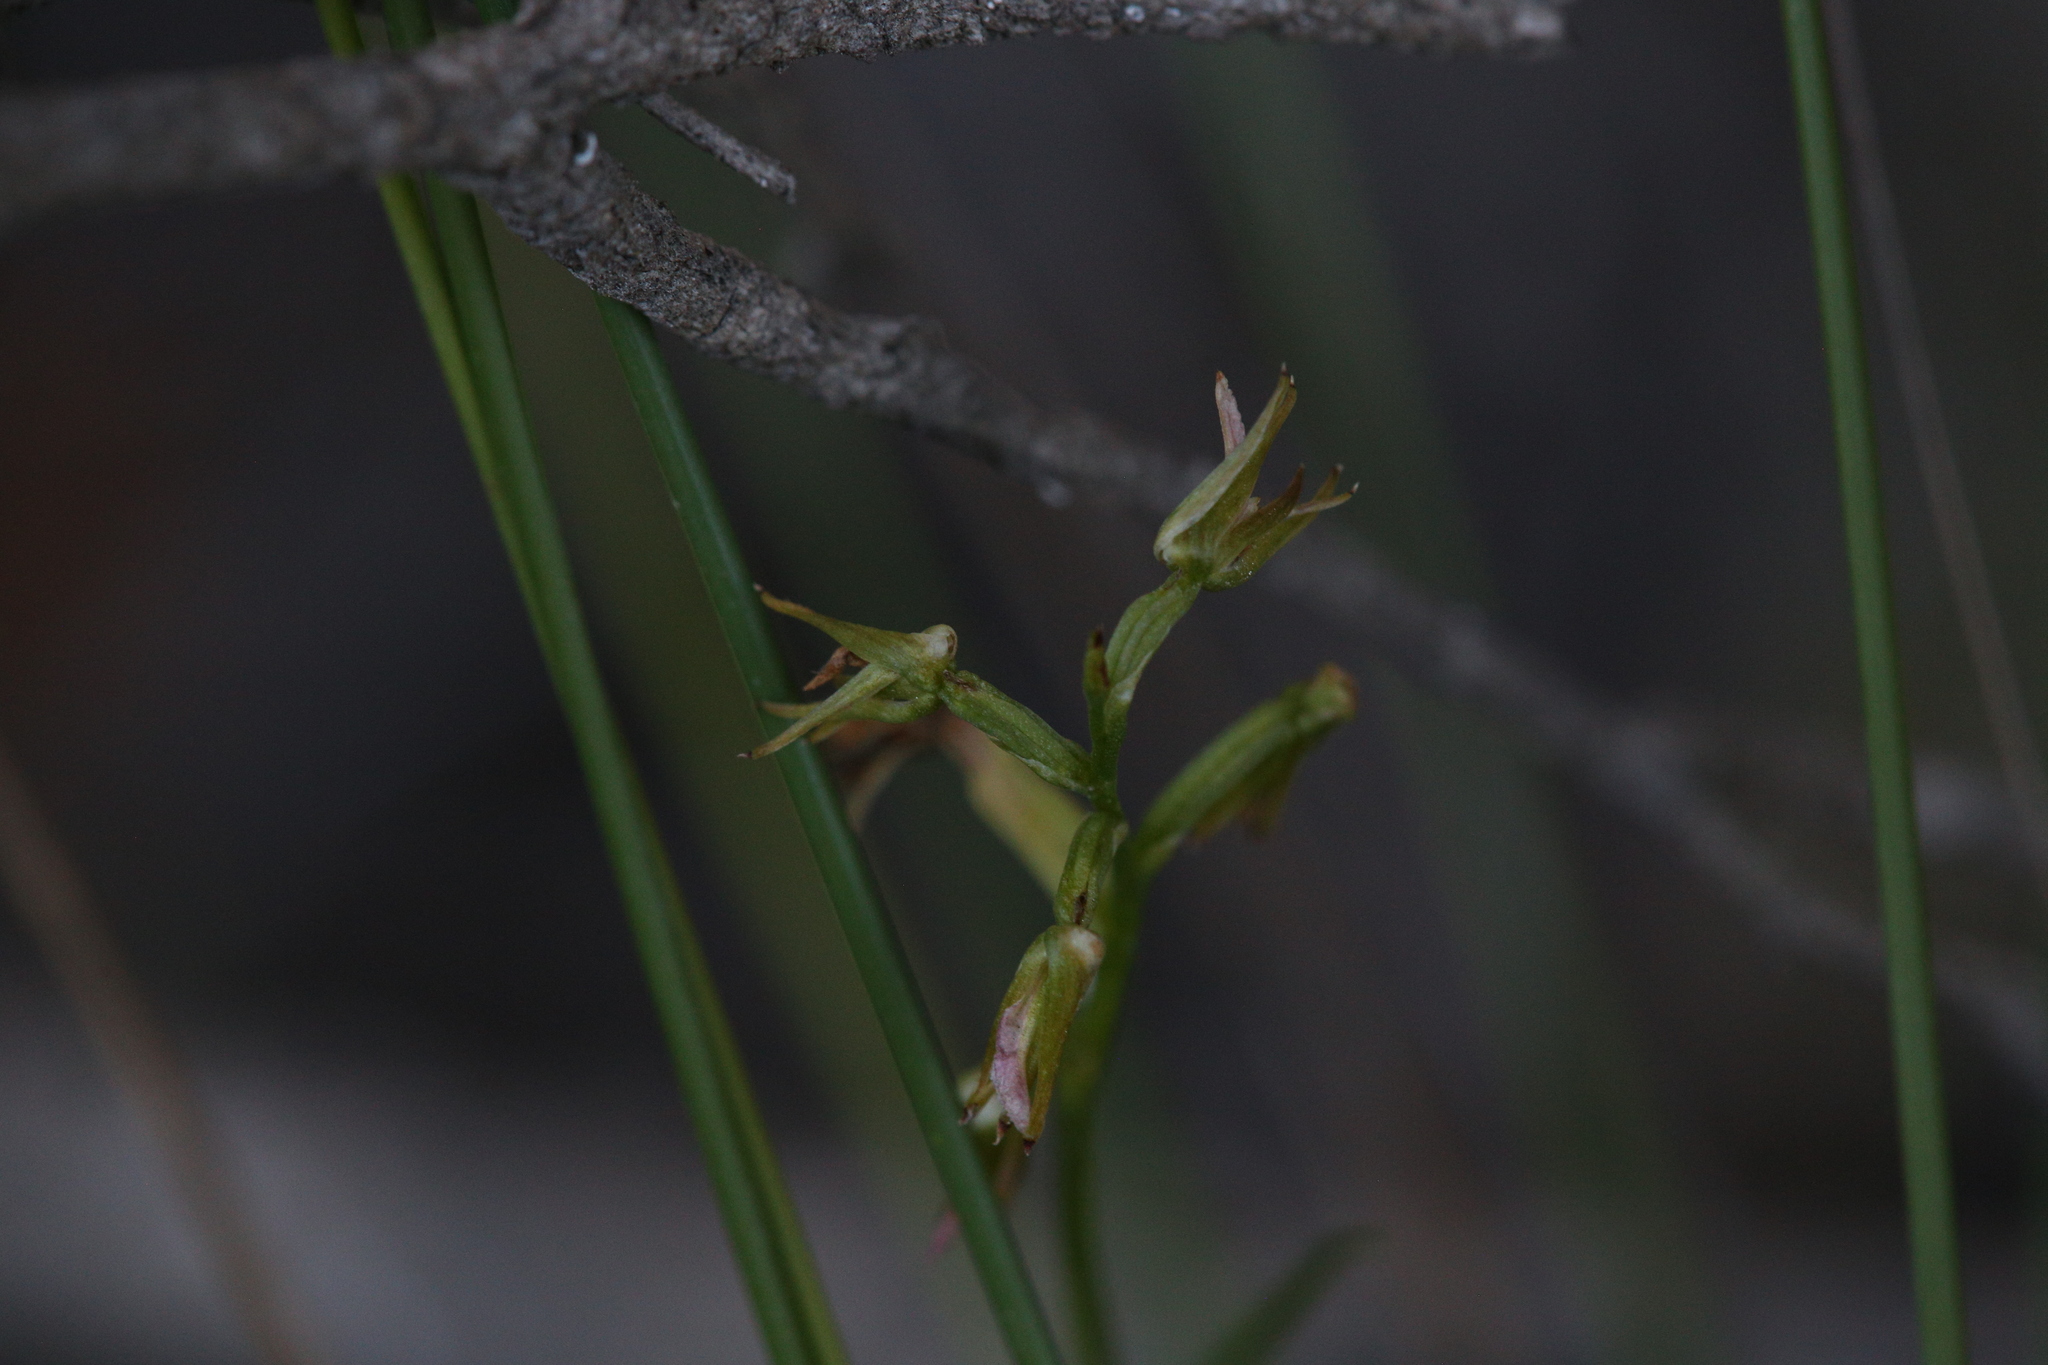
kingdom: Plantae
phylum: Tracheophyta
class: Liliopsida
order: Asparagales
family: Orchidaceae
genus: Prasophyllum
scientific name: Prasophyllum parvifolium
